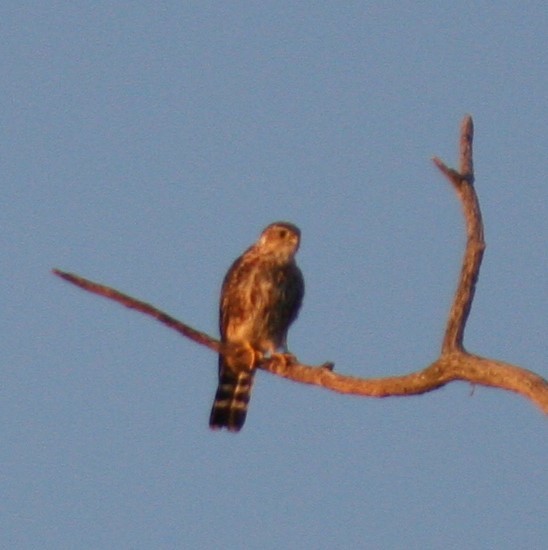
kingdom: Animalia
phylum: Chordata
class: Aves
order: Falconiformes
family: Falconidae
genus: Falco
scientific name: Falco columbarius
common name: Merlin
